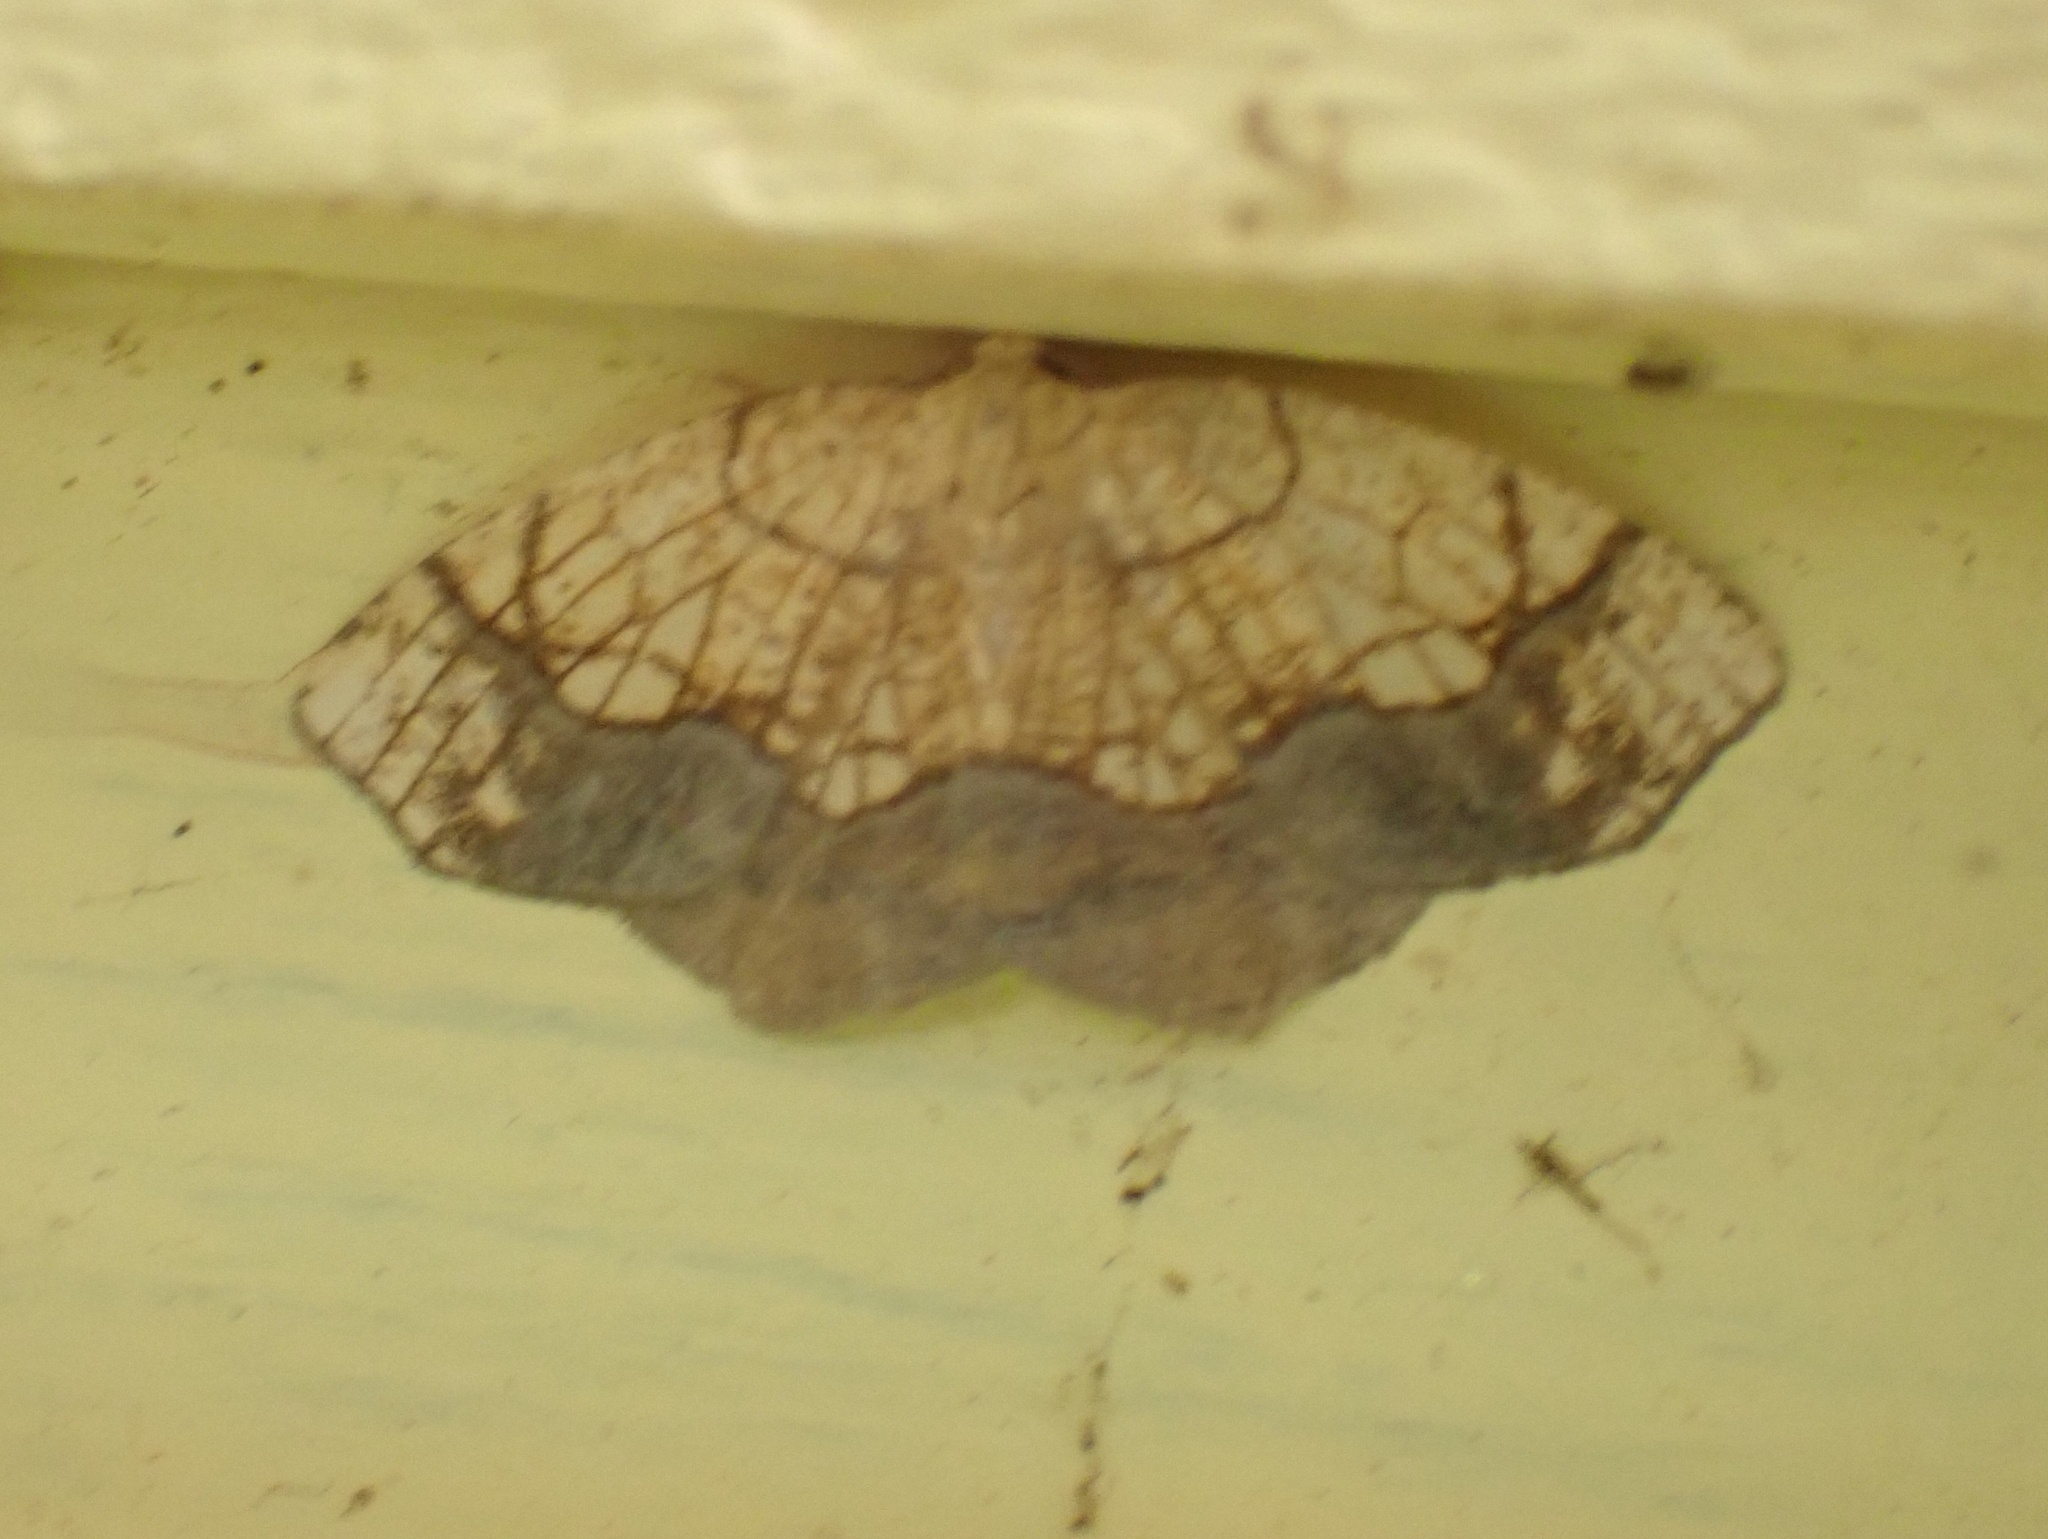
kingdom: Animalia
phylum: Arthropoda
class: Insecta
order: Lepidoptera
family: Geometridae
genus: Nematocampa
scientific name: Nematocampa resistaria
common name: Horned spanworm moth
